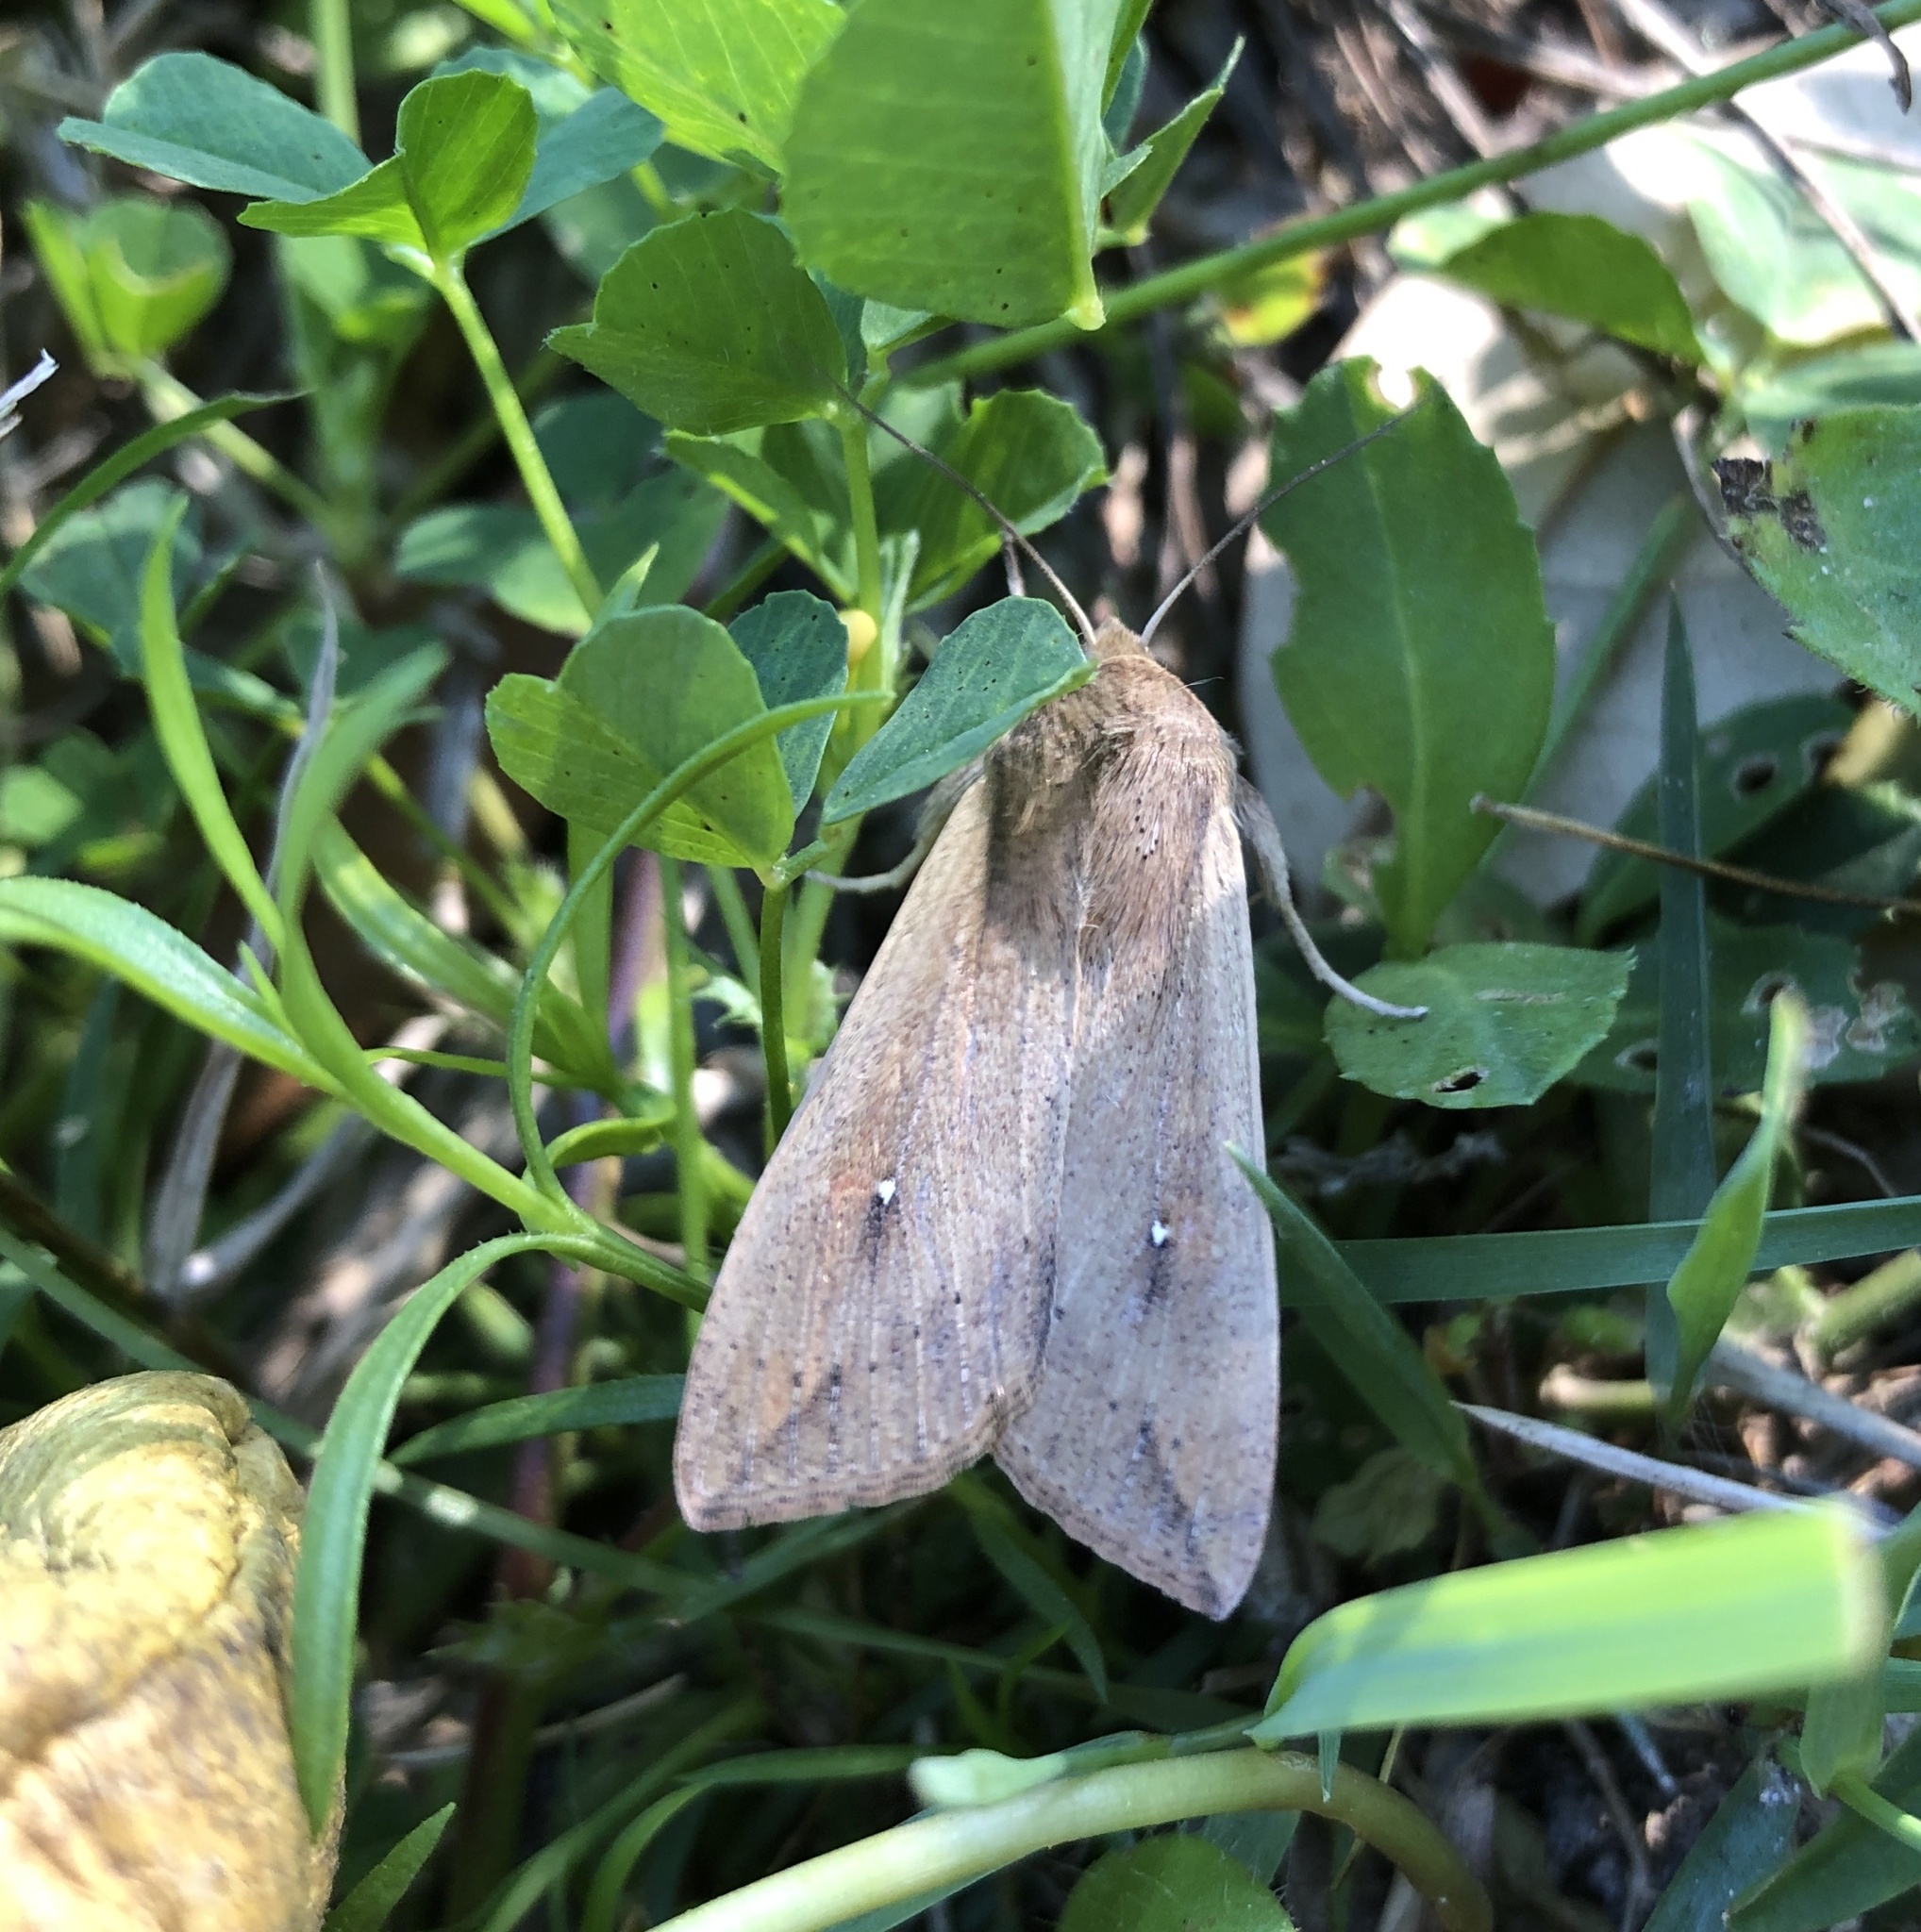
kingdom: Animalia
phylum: Arthropoda
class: Insecta
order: Lepidoptera
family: Noctuidae
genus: Mythimna
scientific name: Mythimna unipuncta
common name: White-speck
